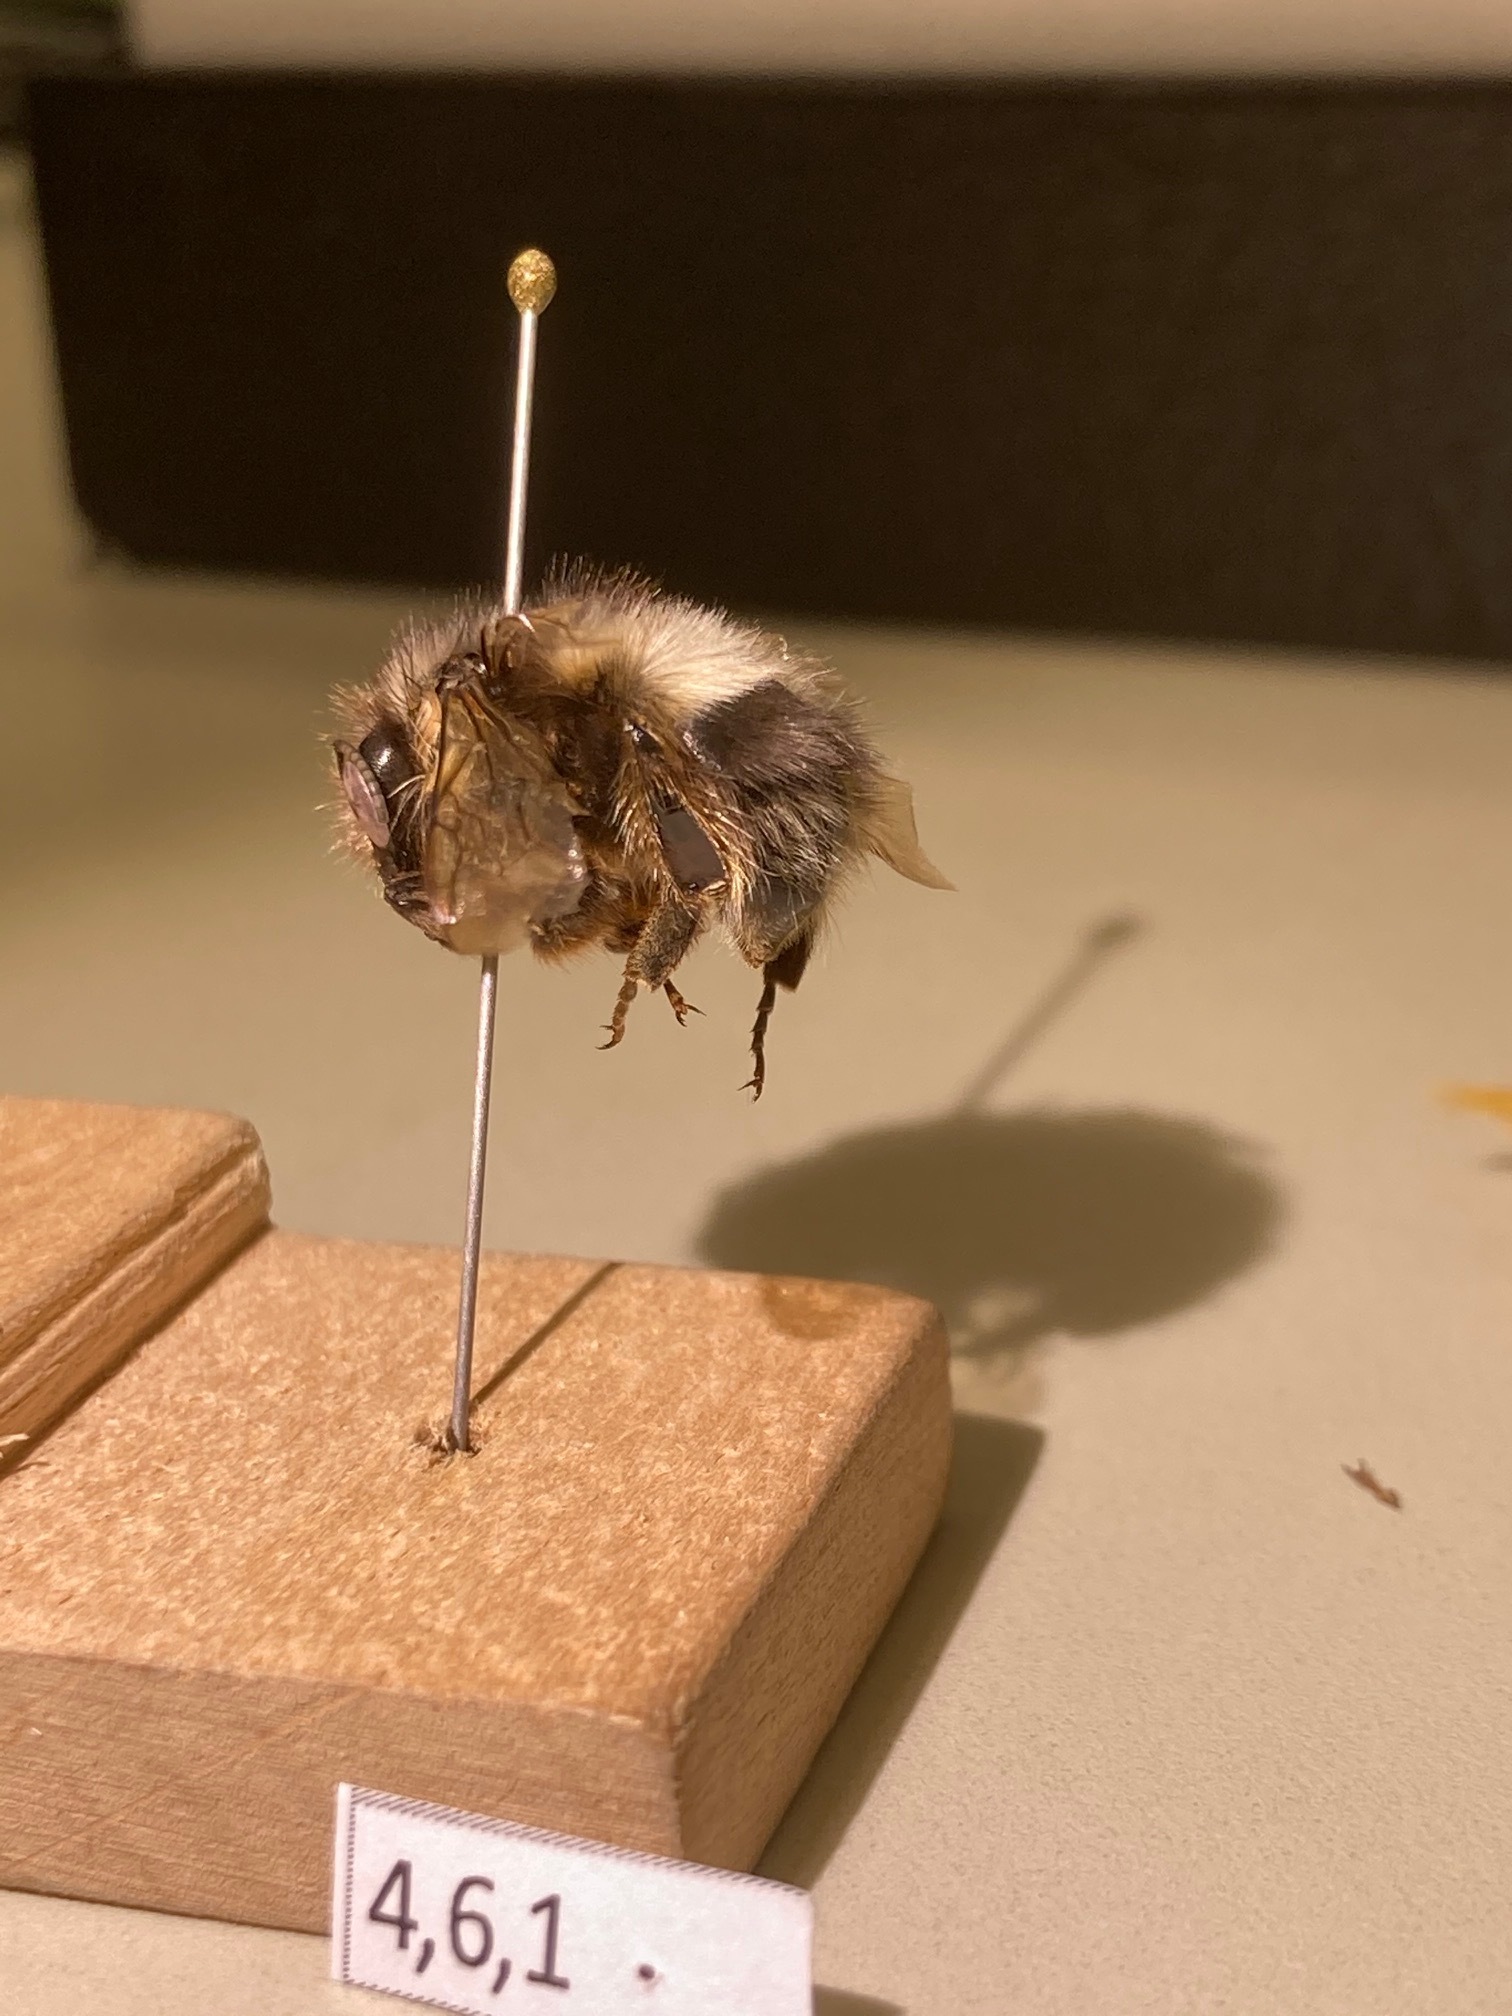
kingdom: Animalia
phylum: Arthropoda
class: Insecta
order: Hymenoptera
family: Apidae
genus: Bombus
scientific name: Bombus sitkensis
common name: Sitka bumble bee
